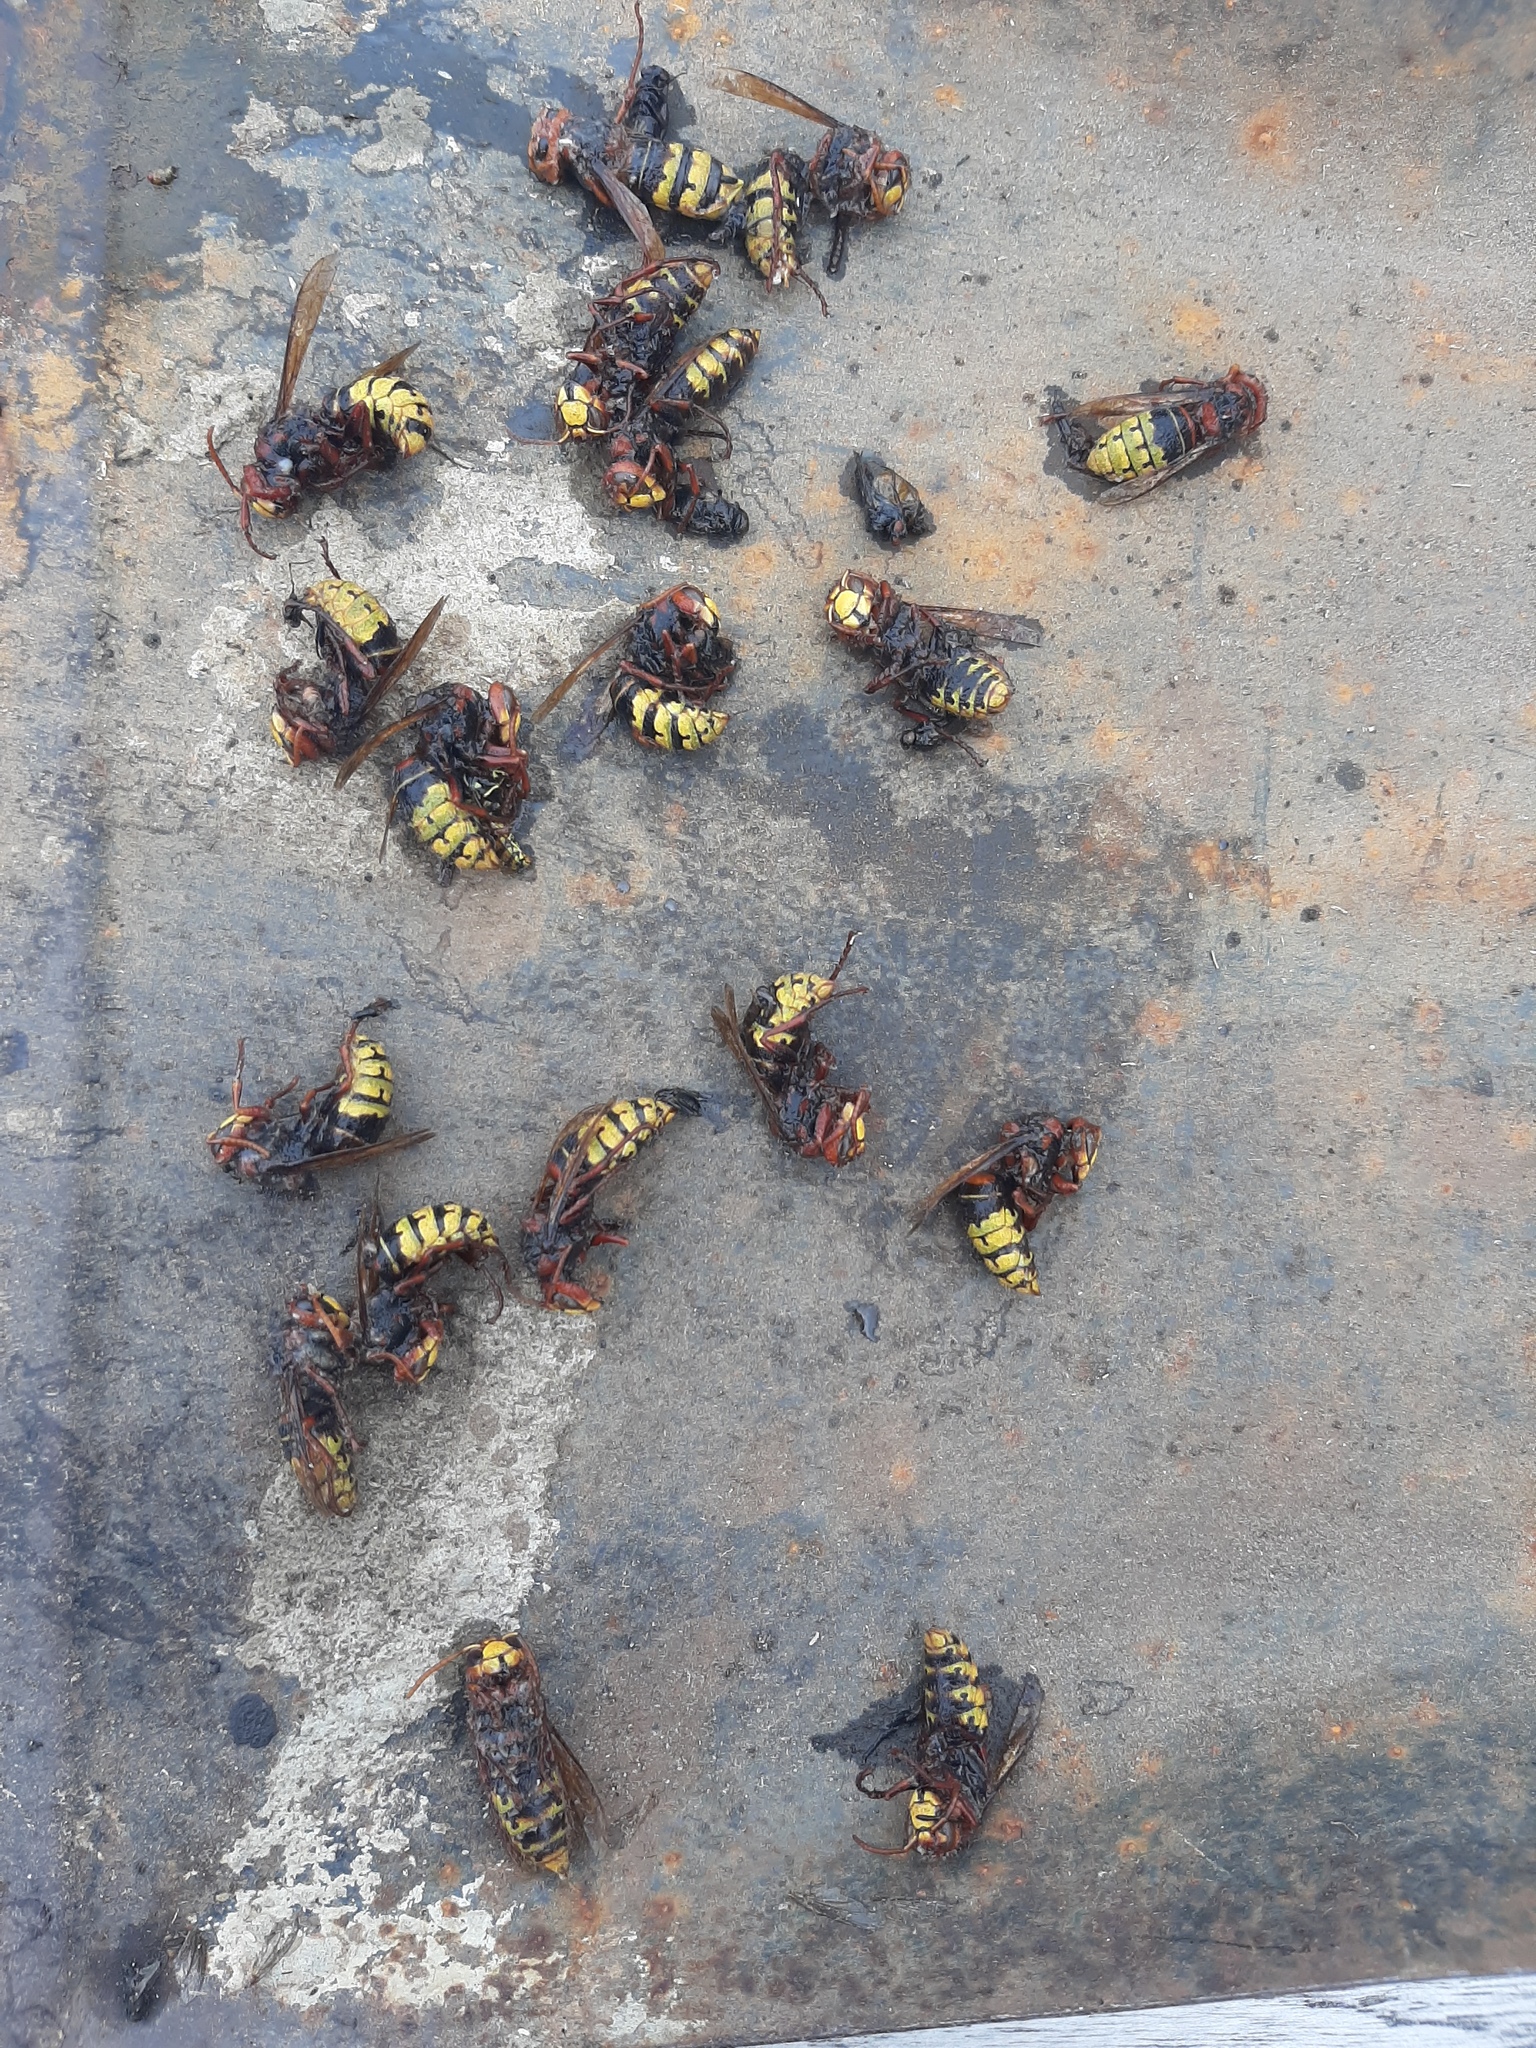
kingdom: Animalia
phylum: Arthropoda
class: Insecta
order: Hymenoptera
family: Vespidae
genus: Vespa
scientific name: Vespa crabro
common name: Hornet
